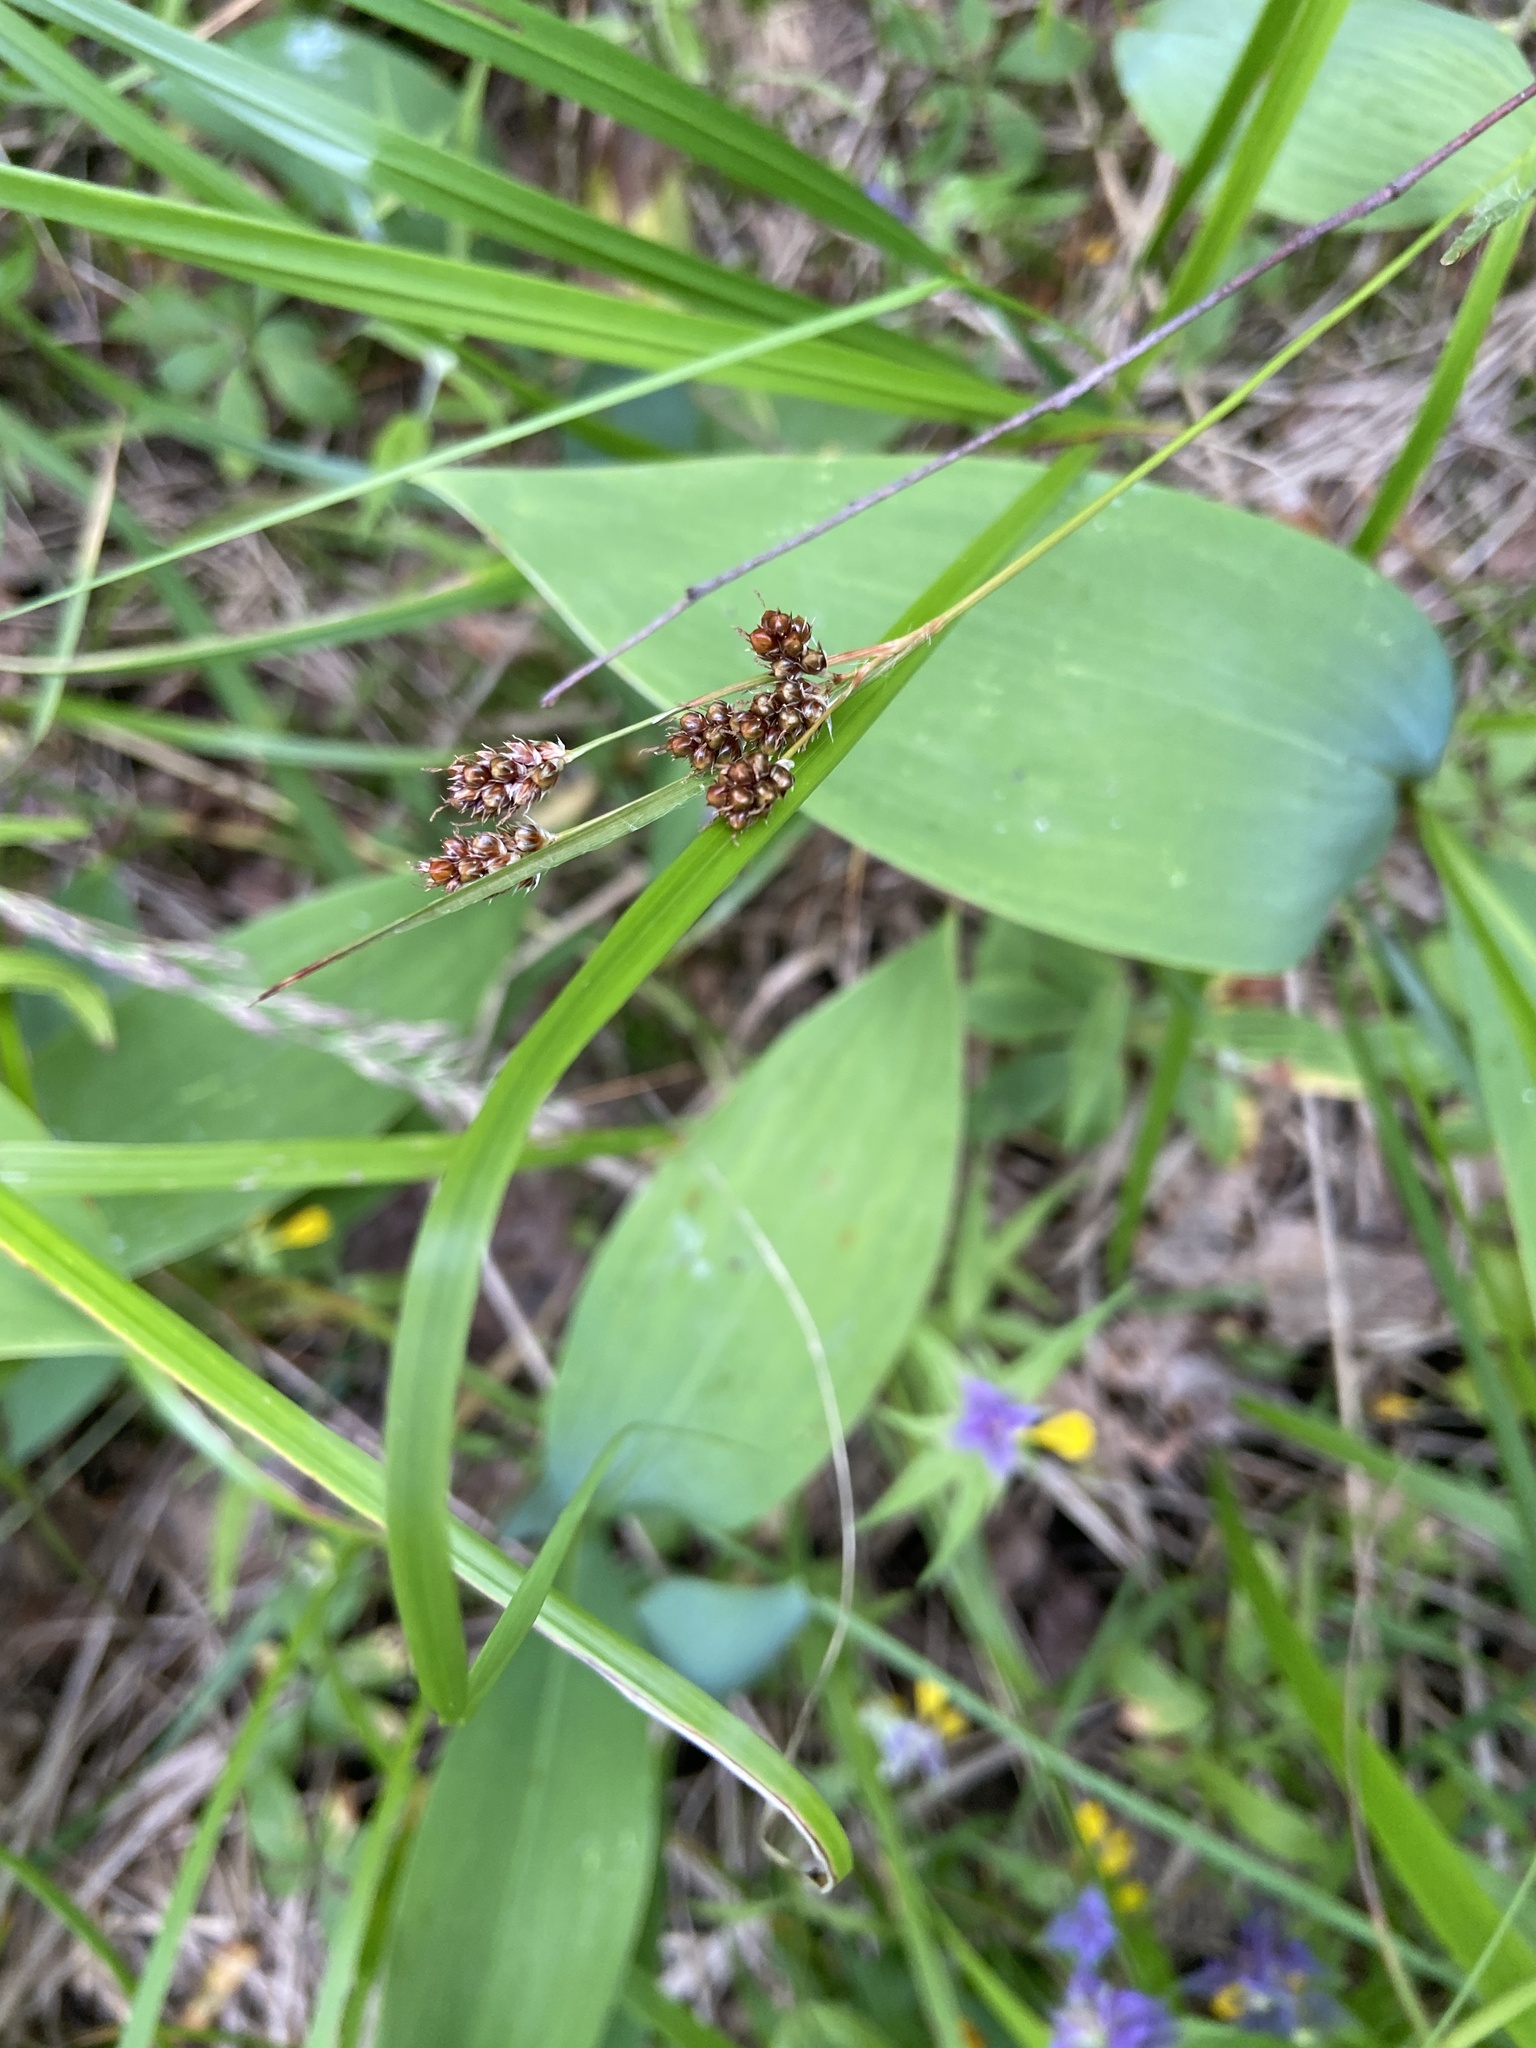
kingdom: Plantae
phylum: Tracheophyta
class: Liliopsida
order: Poales
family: Juncaceae
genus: Luzula
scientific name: Luzula multiflora
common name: Heath wood-rush
